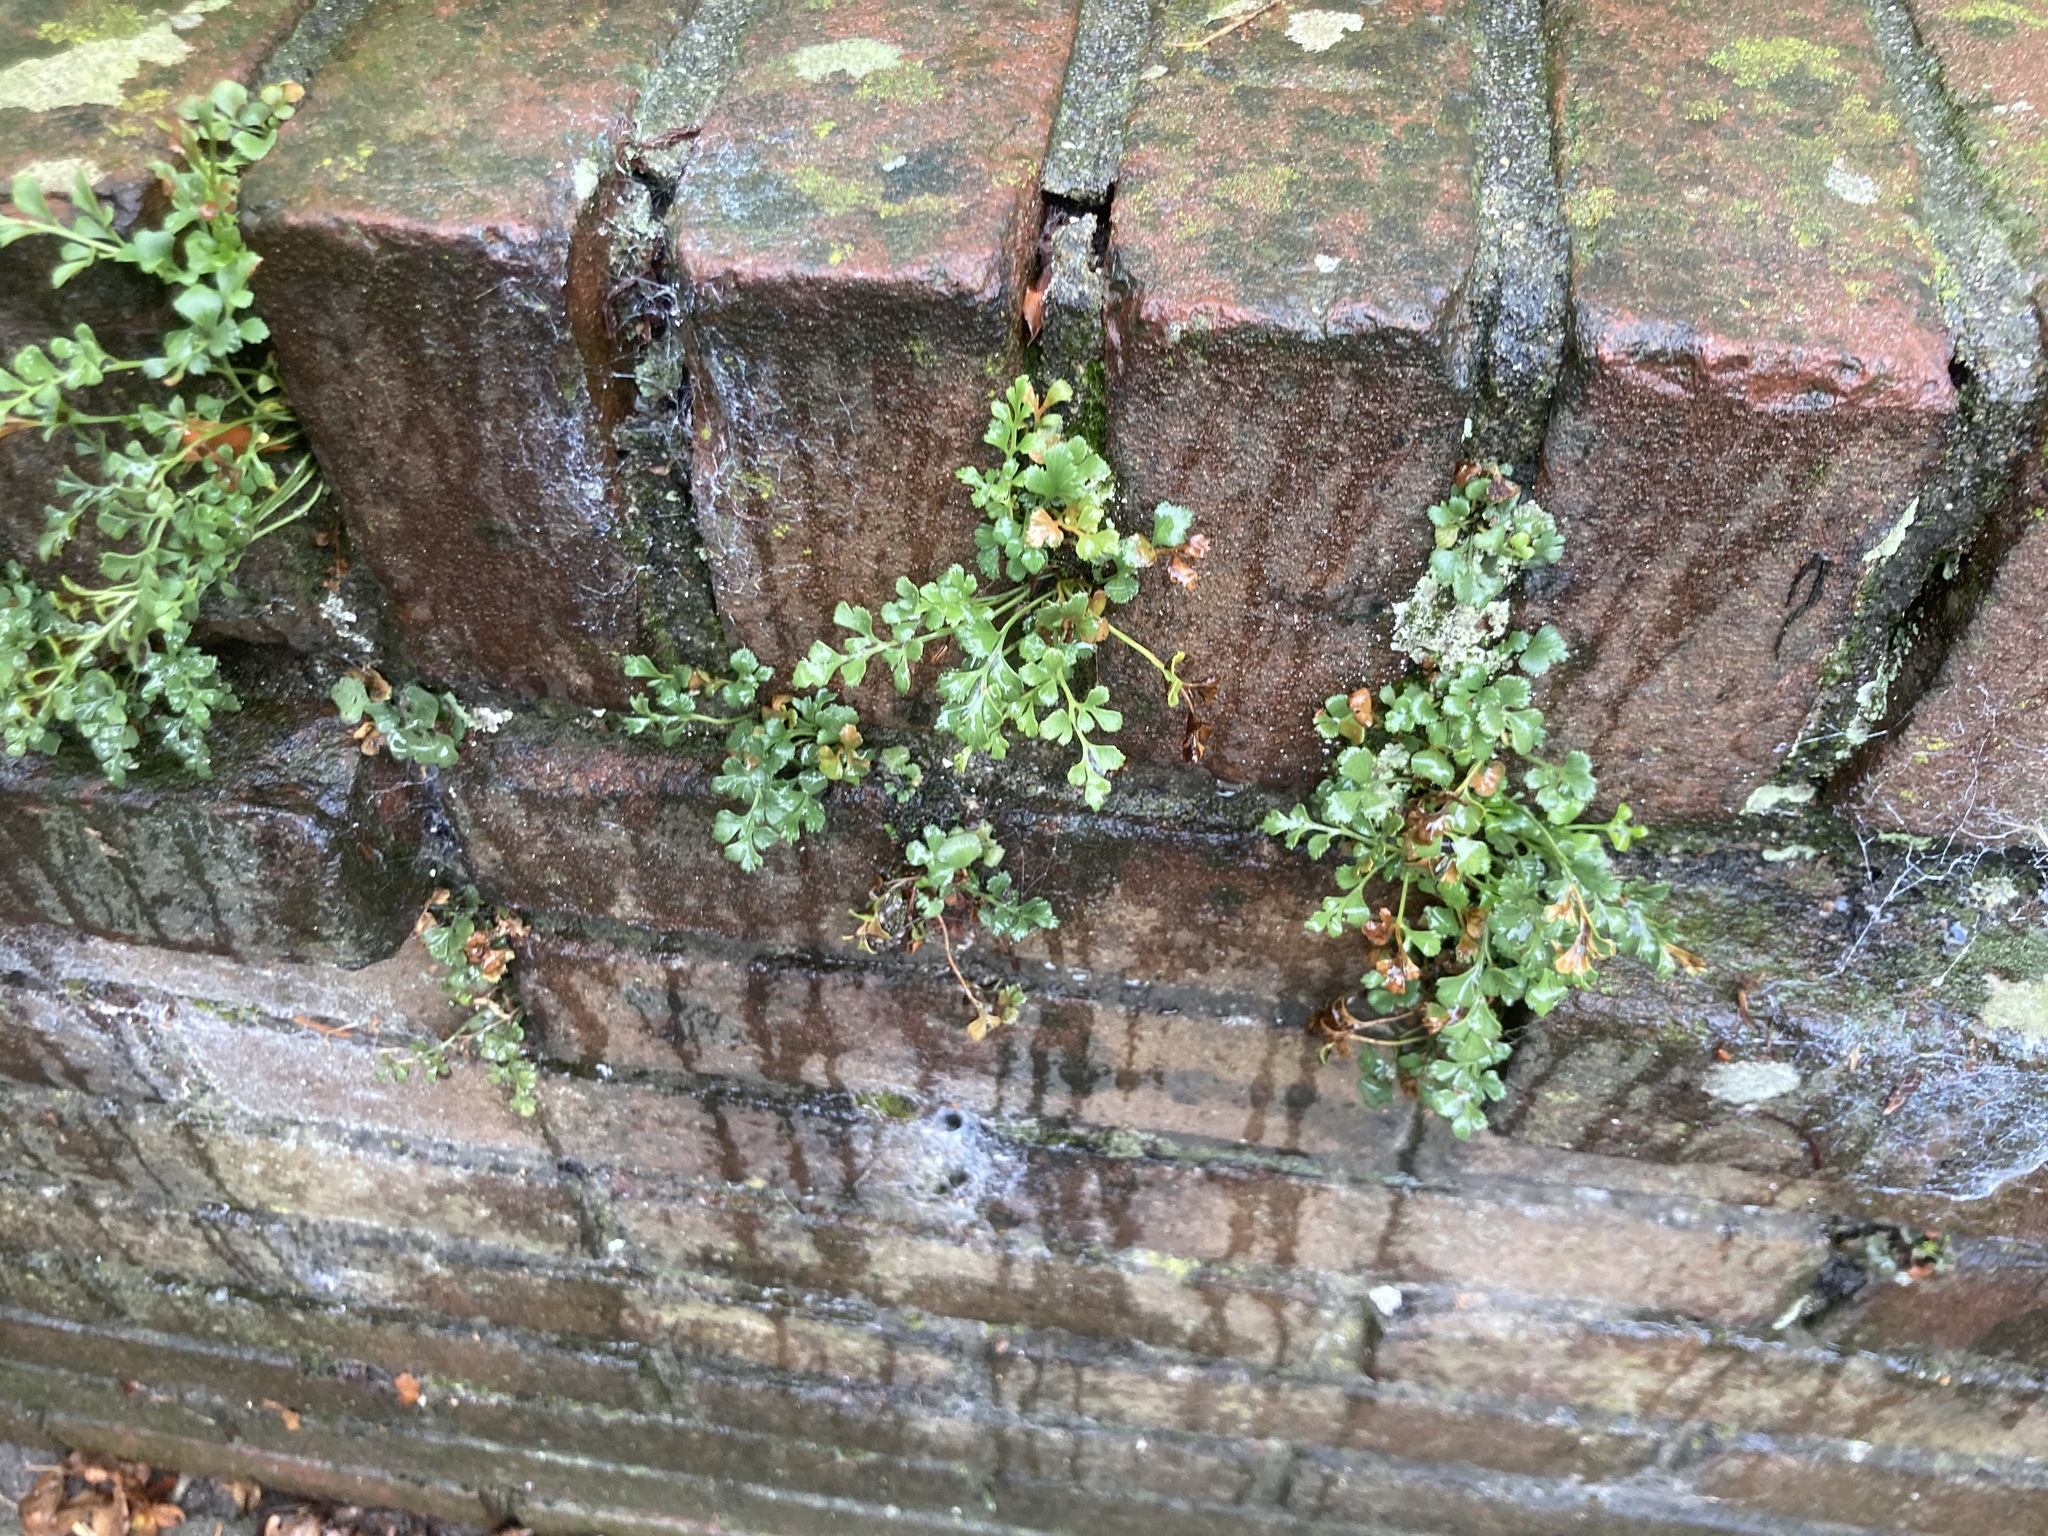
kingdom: Plantae
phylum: Tracheophyta
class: Polypodiopsida
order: Polypodiales
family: Aspleniaceae
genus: Asplenium
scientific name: Asplenium ruta-muraria
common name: Wall-rue
